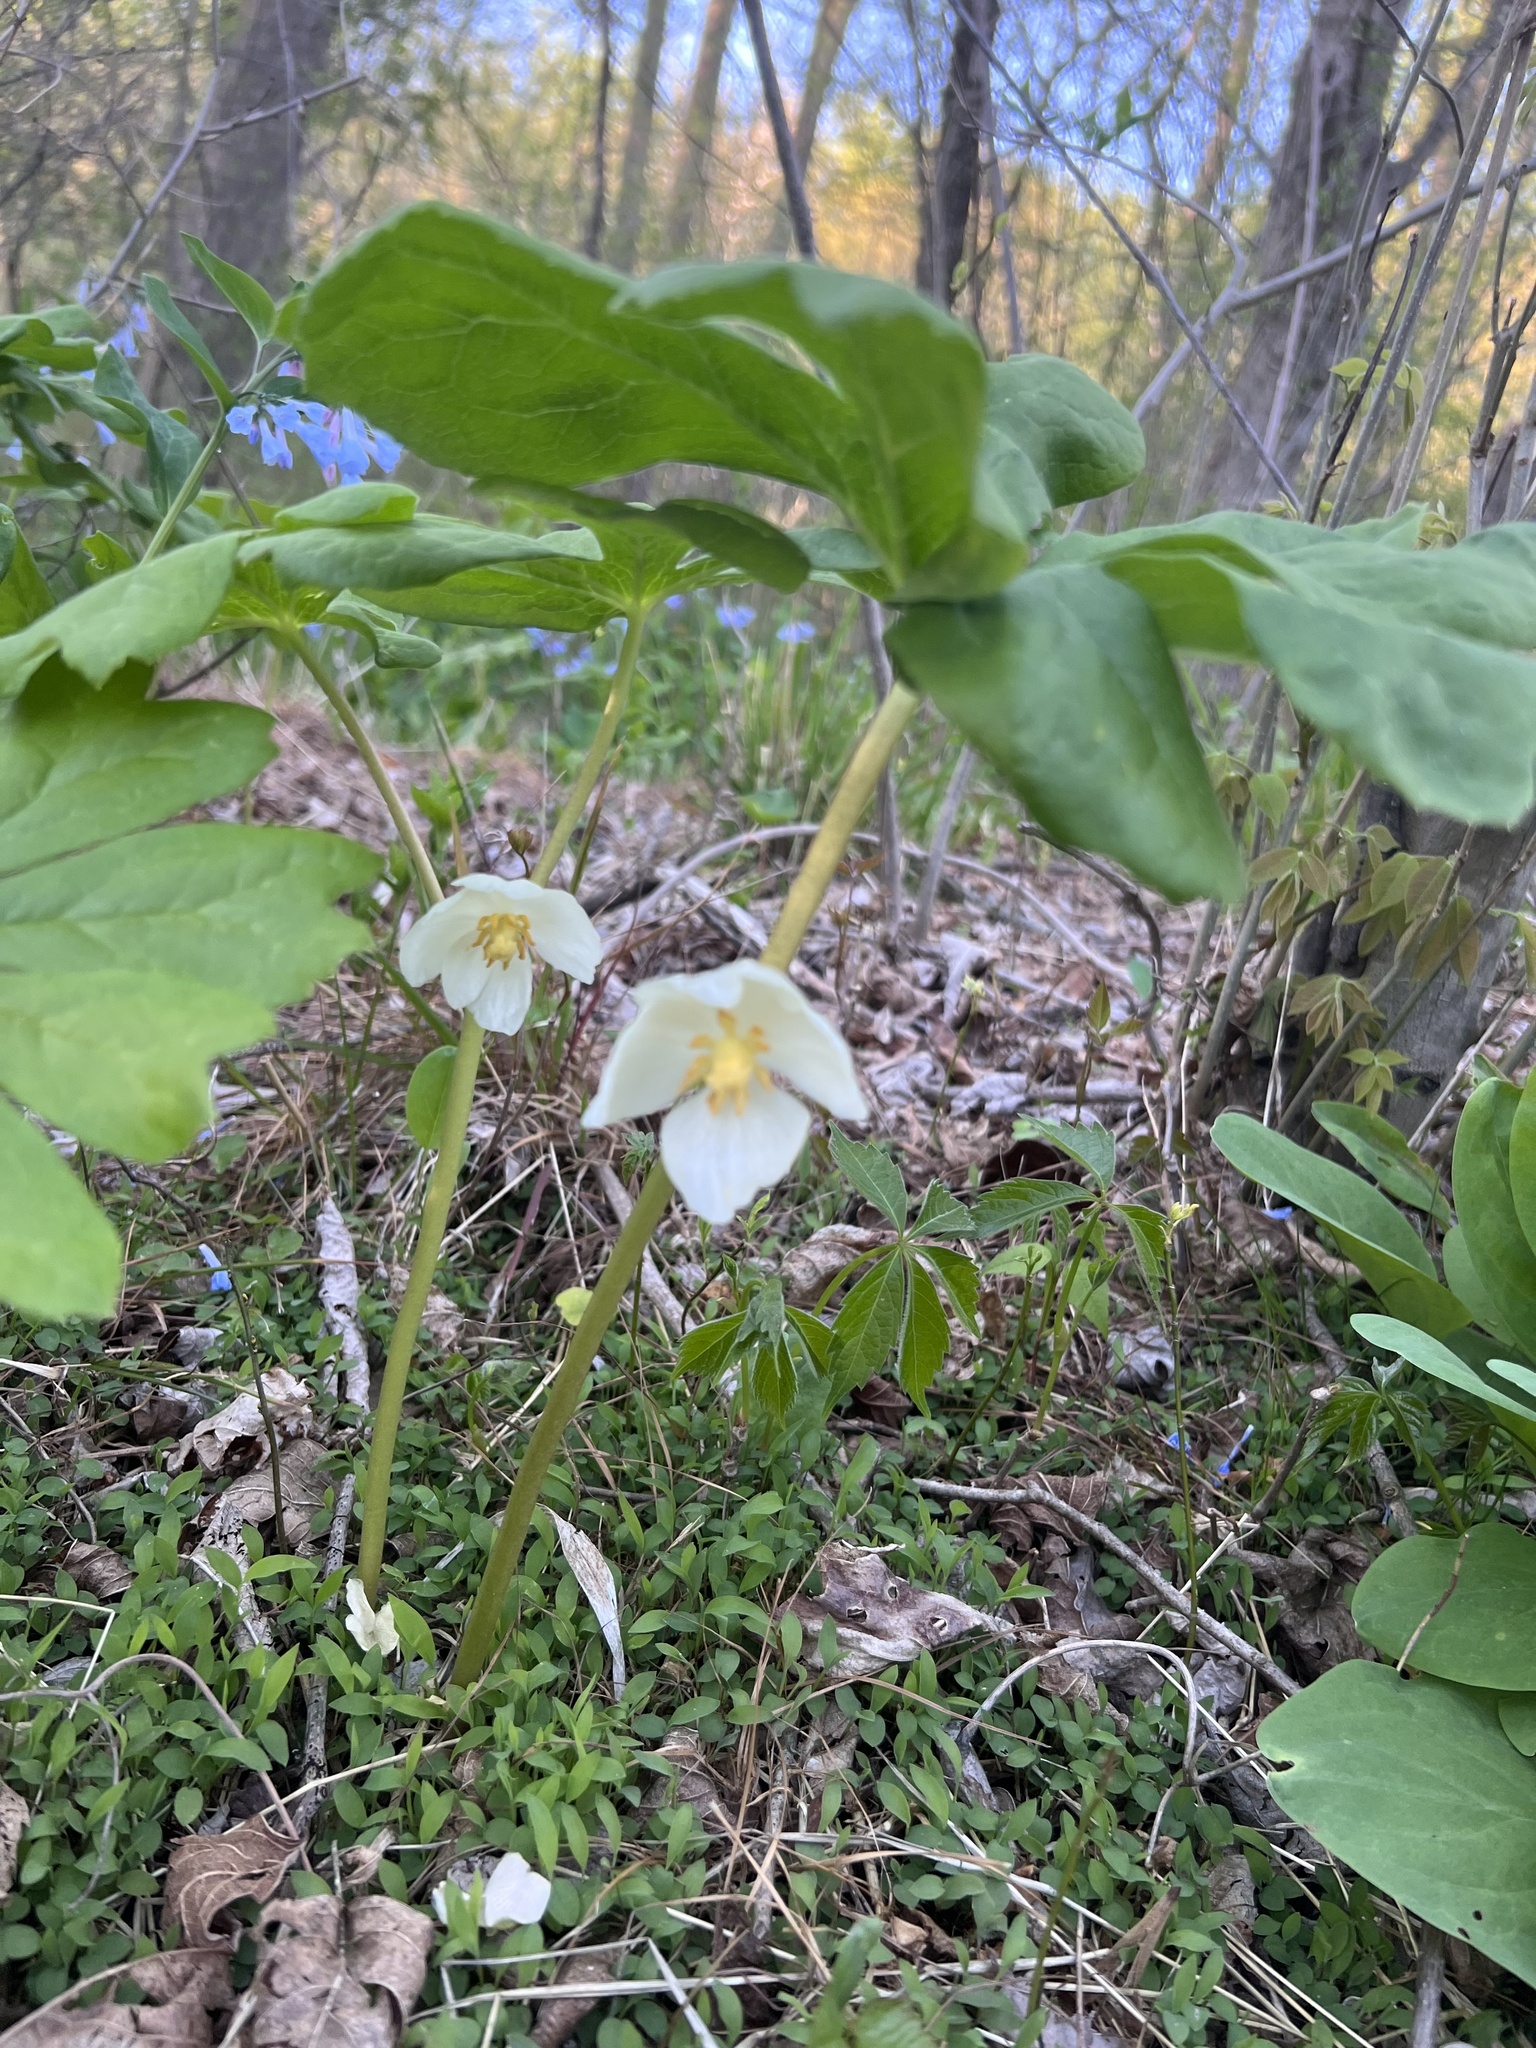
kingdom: Plantae
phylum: Tracheophyta
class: Magnoliopsida
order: Ranunculales
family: Berberidaceae
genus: Podophyllum
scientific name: Podophyllum peltatum
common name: Wild mandrake
